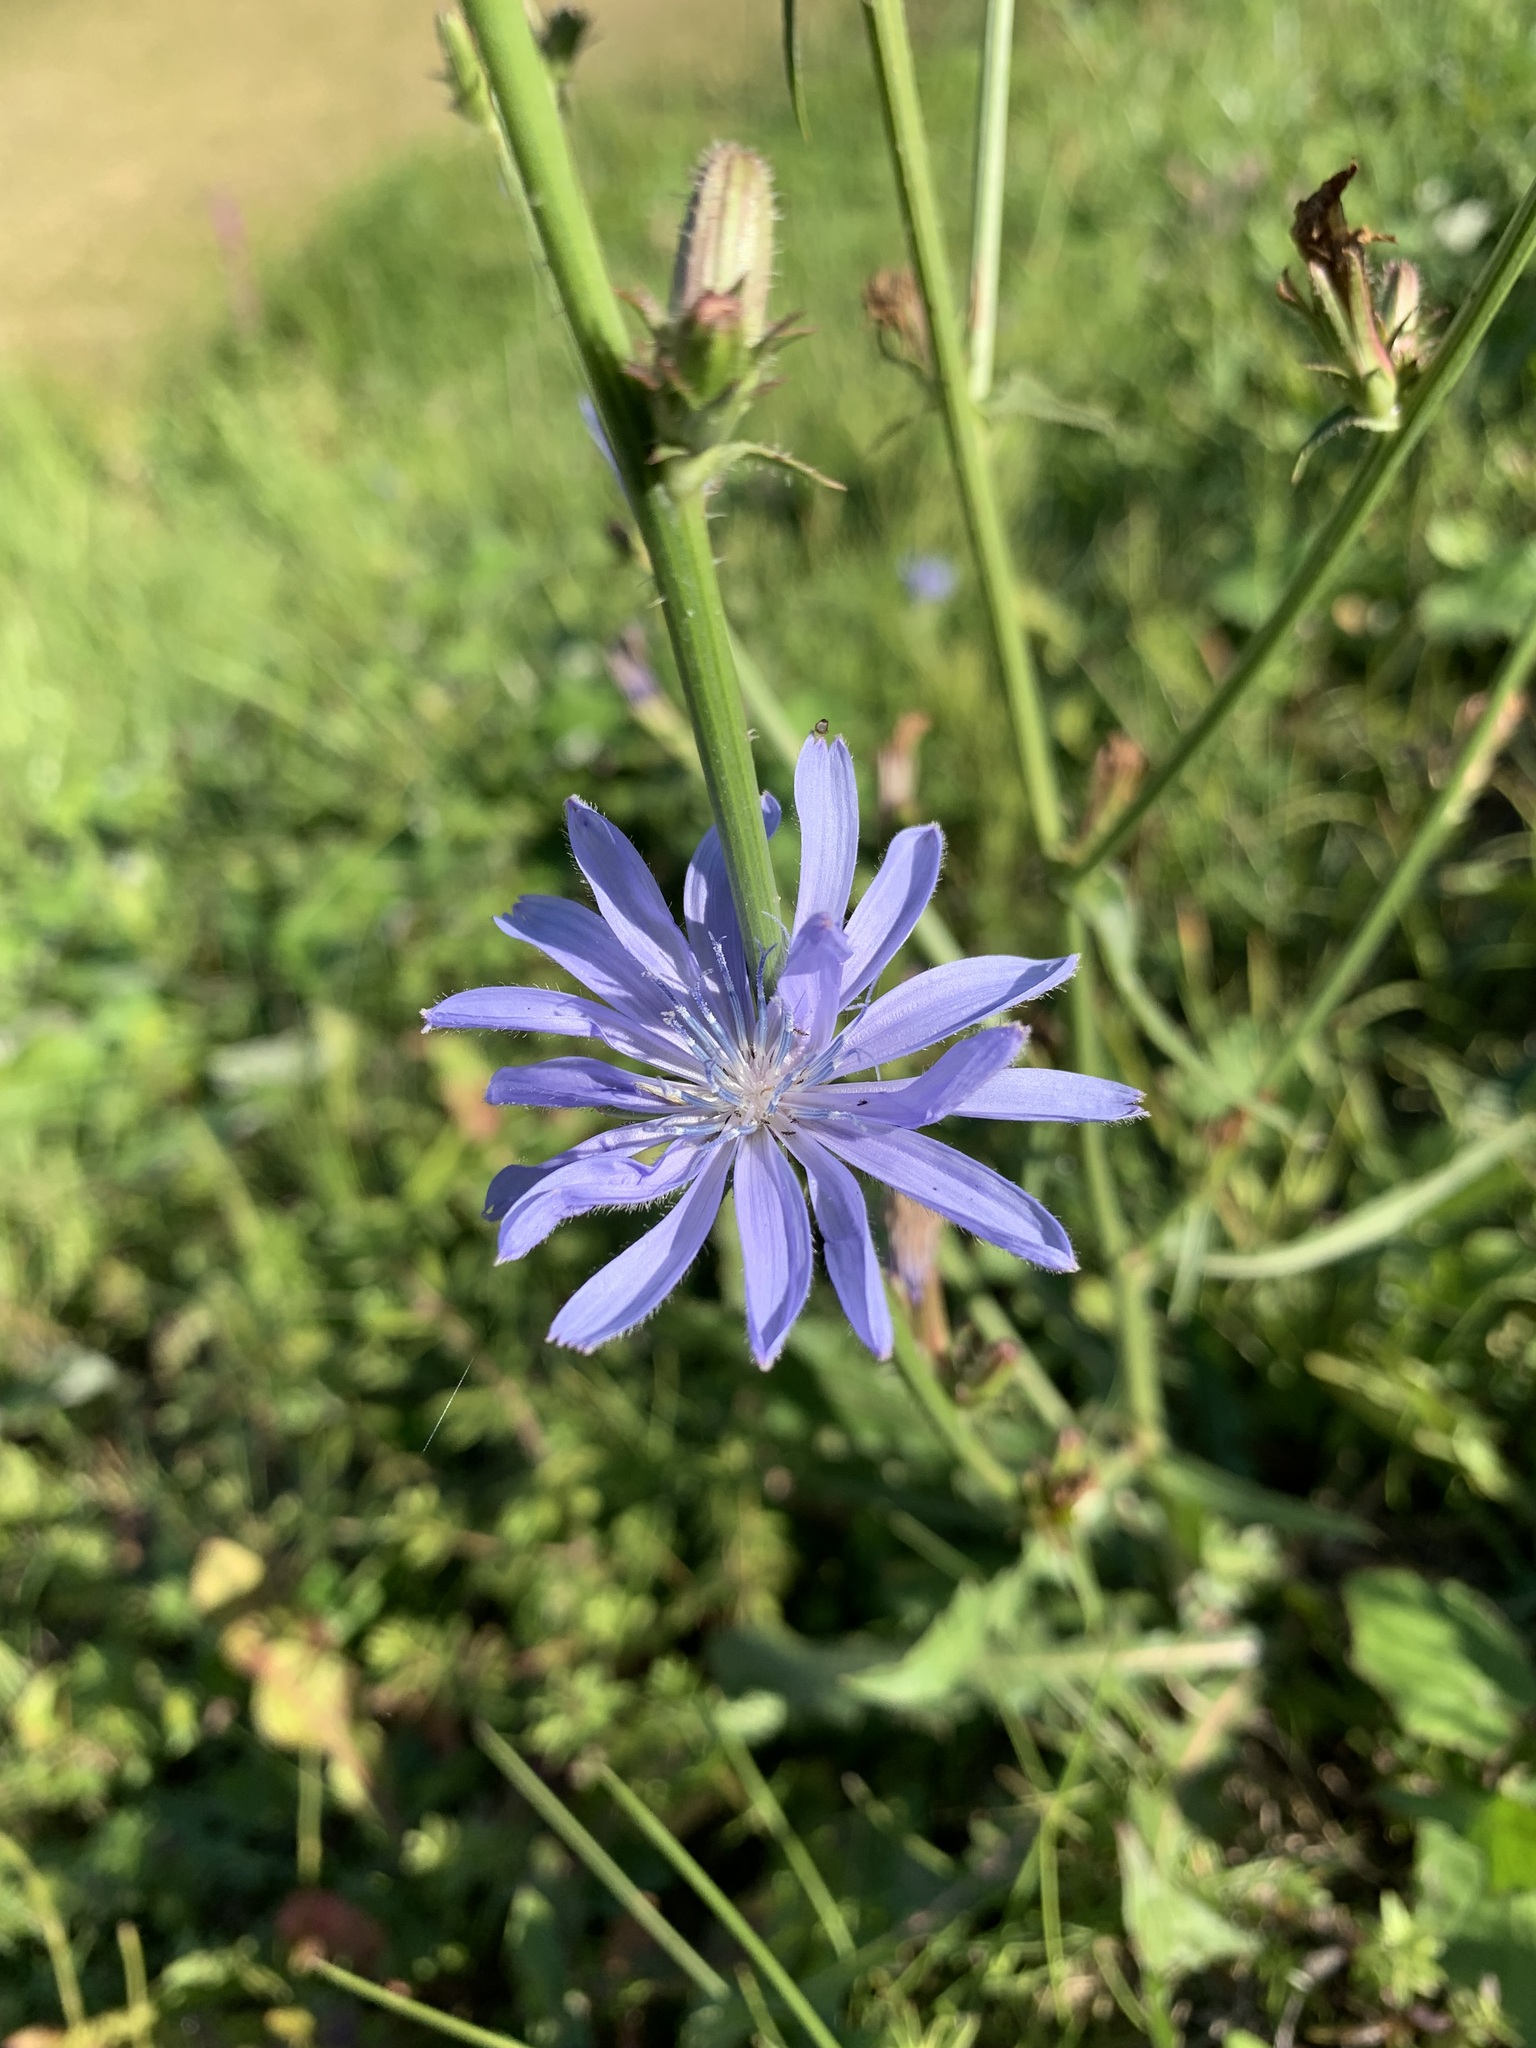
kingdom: Plantae
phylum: Tracheophyta
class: Magnoliopsida
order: Asterales
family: Asteraceae
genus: Cichorium
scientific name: Cichorium intybus
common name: Chicory
